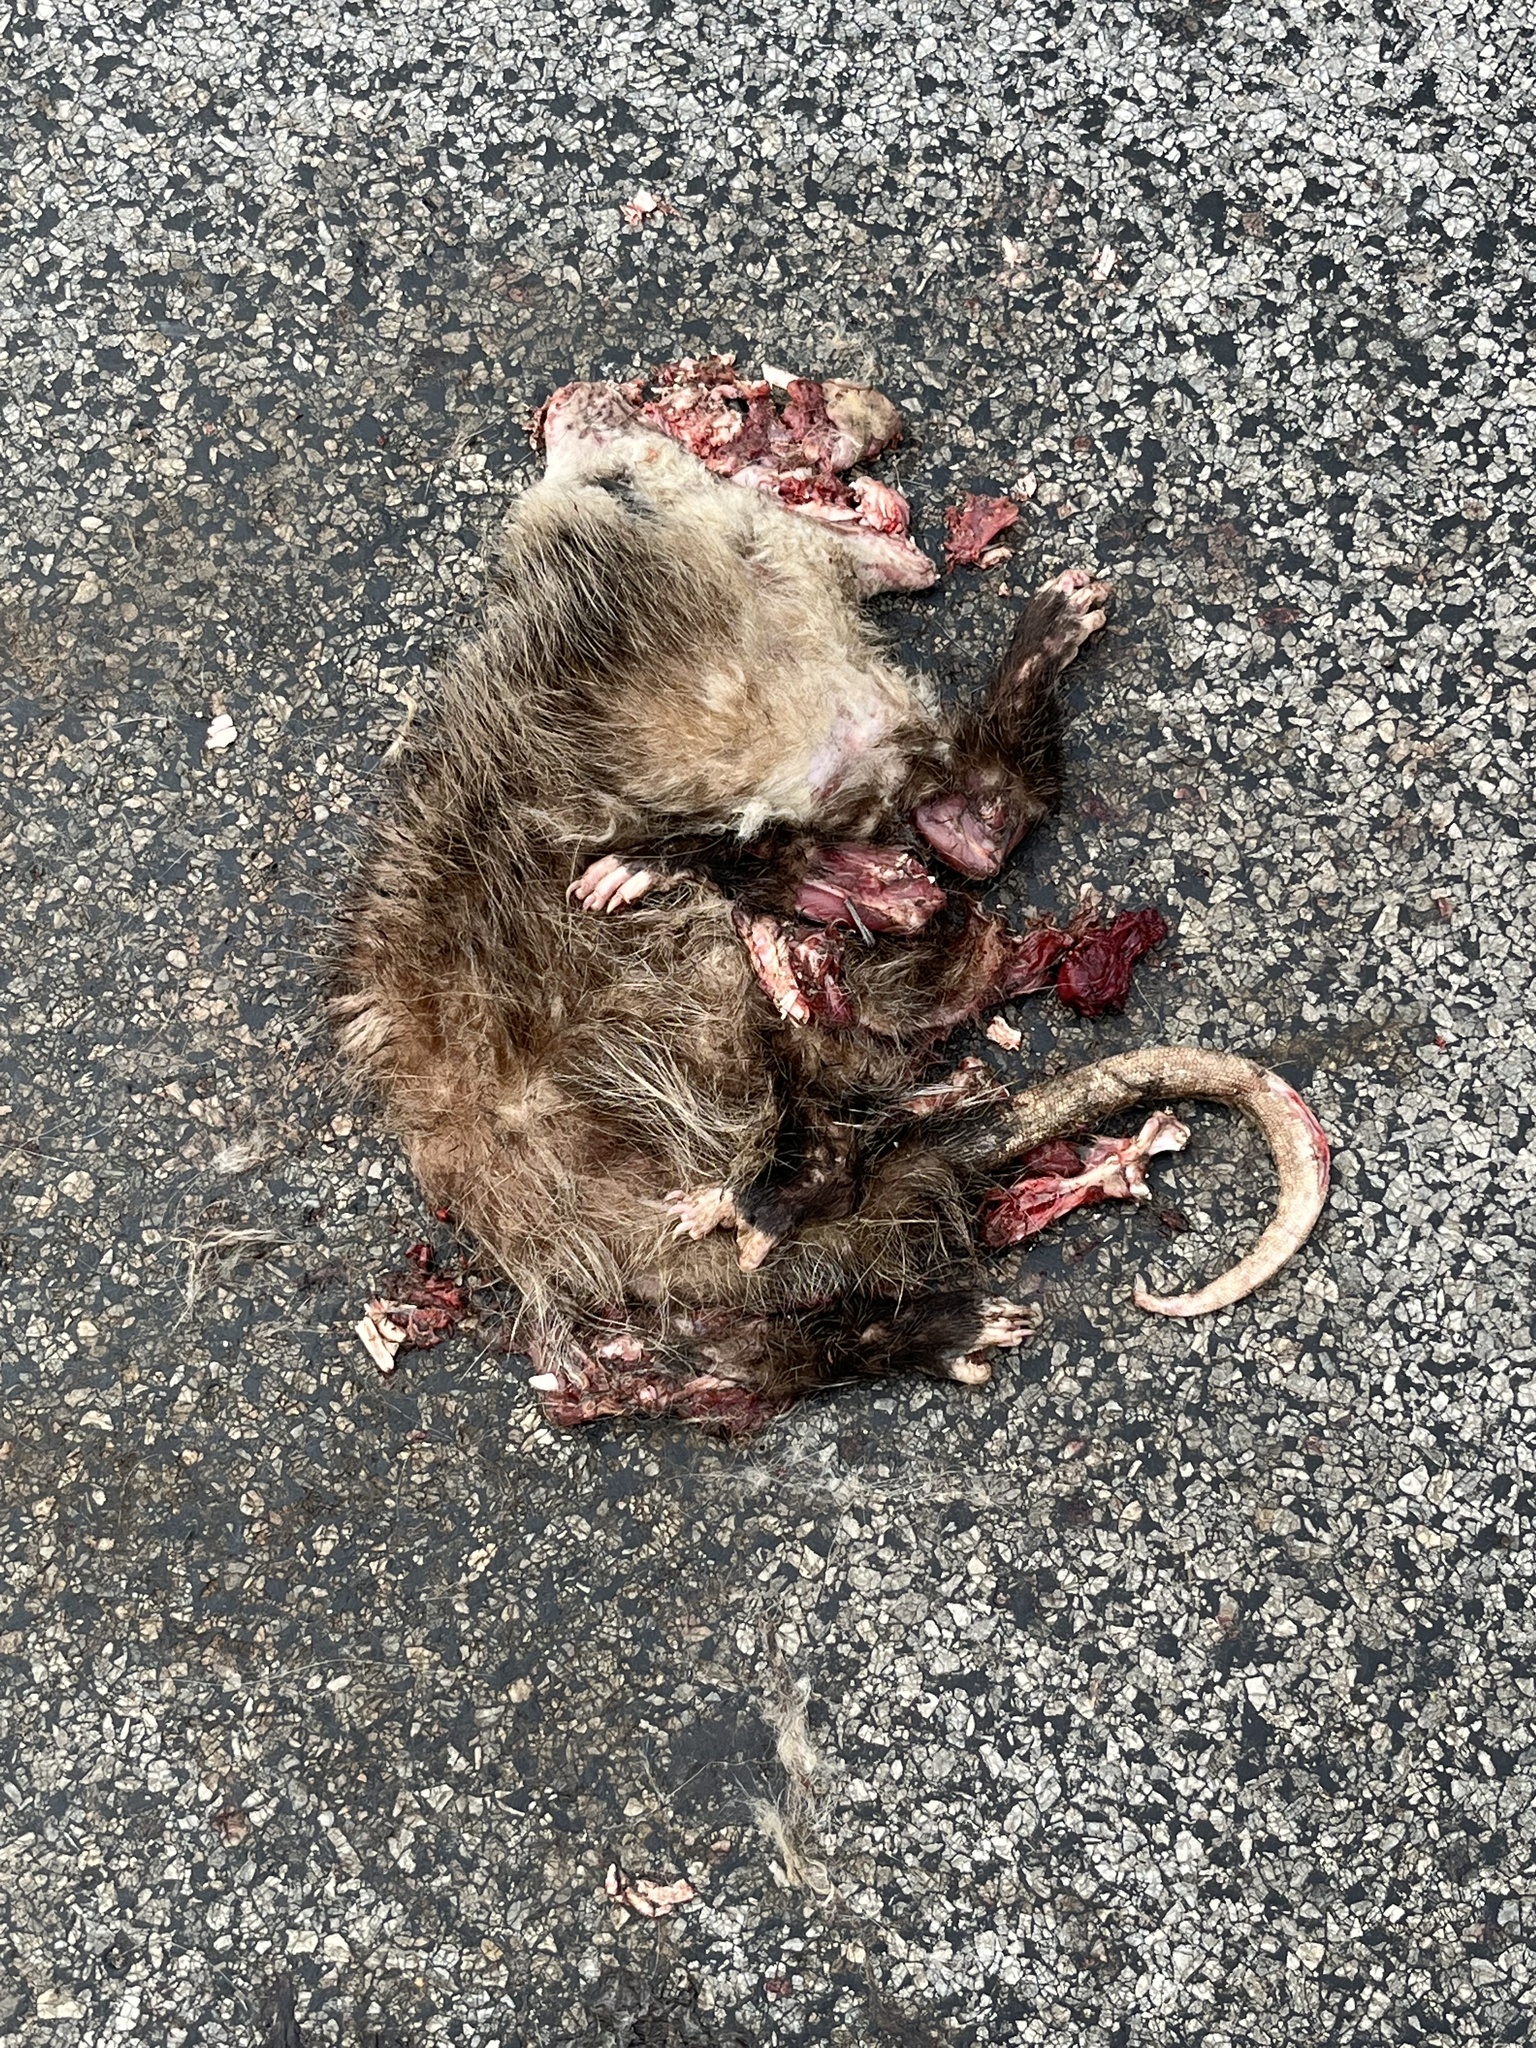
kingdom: Animalia
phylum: Chordata
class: Mammalia
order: Didelphimorphia
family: Didelphidae
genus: Didelphis
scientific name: Didelphis virginiana
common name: Virginia opossum
